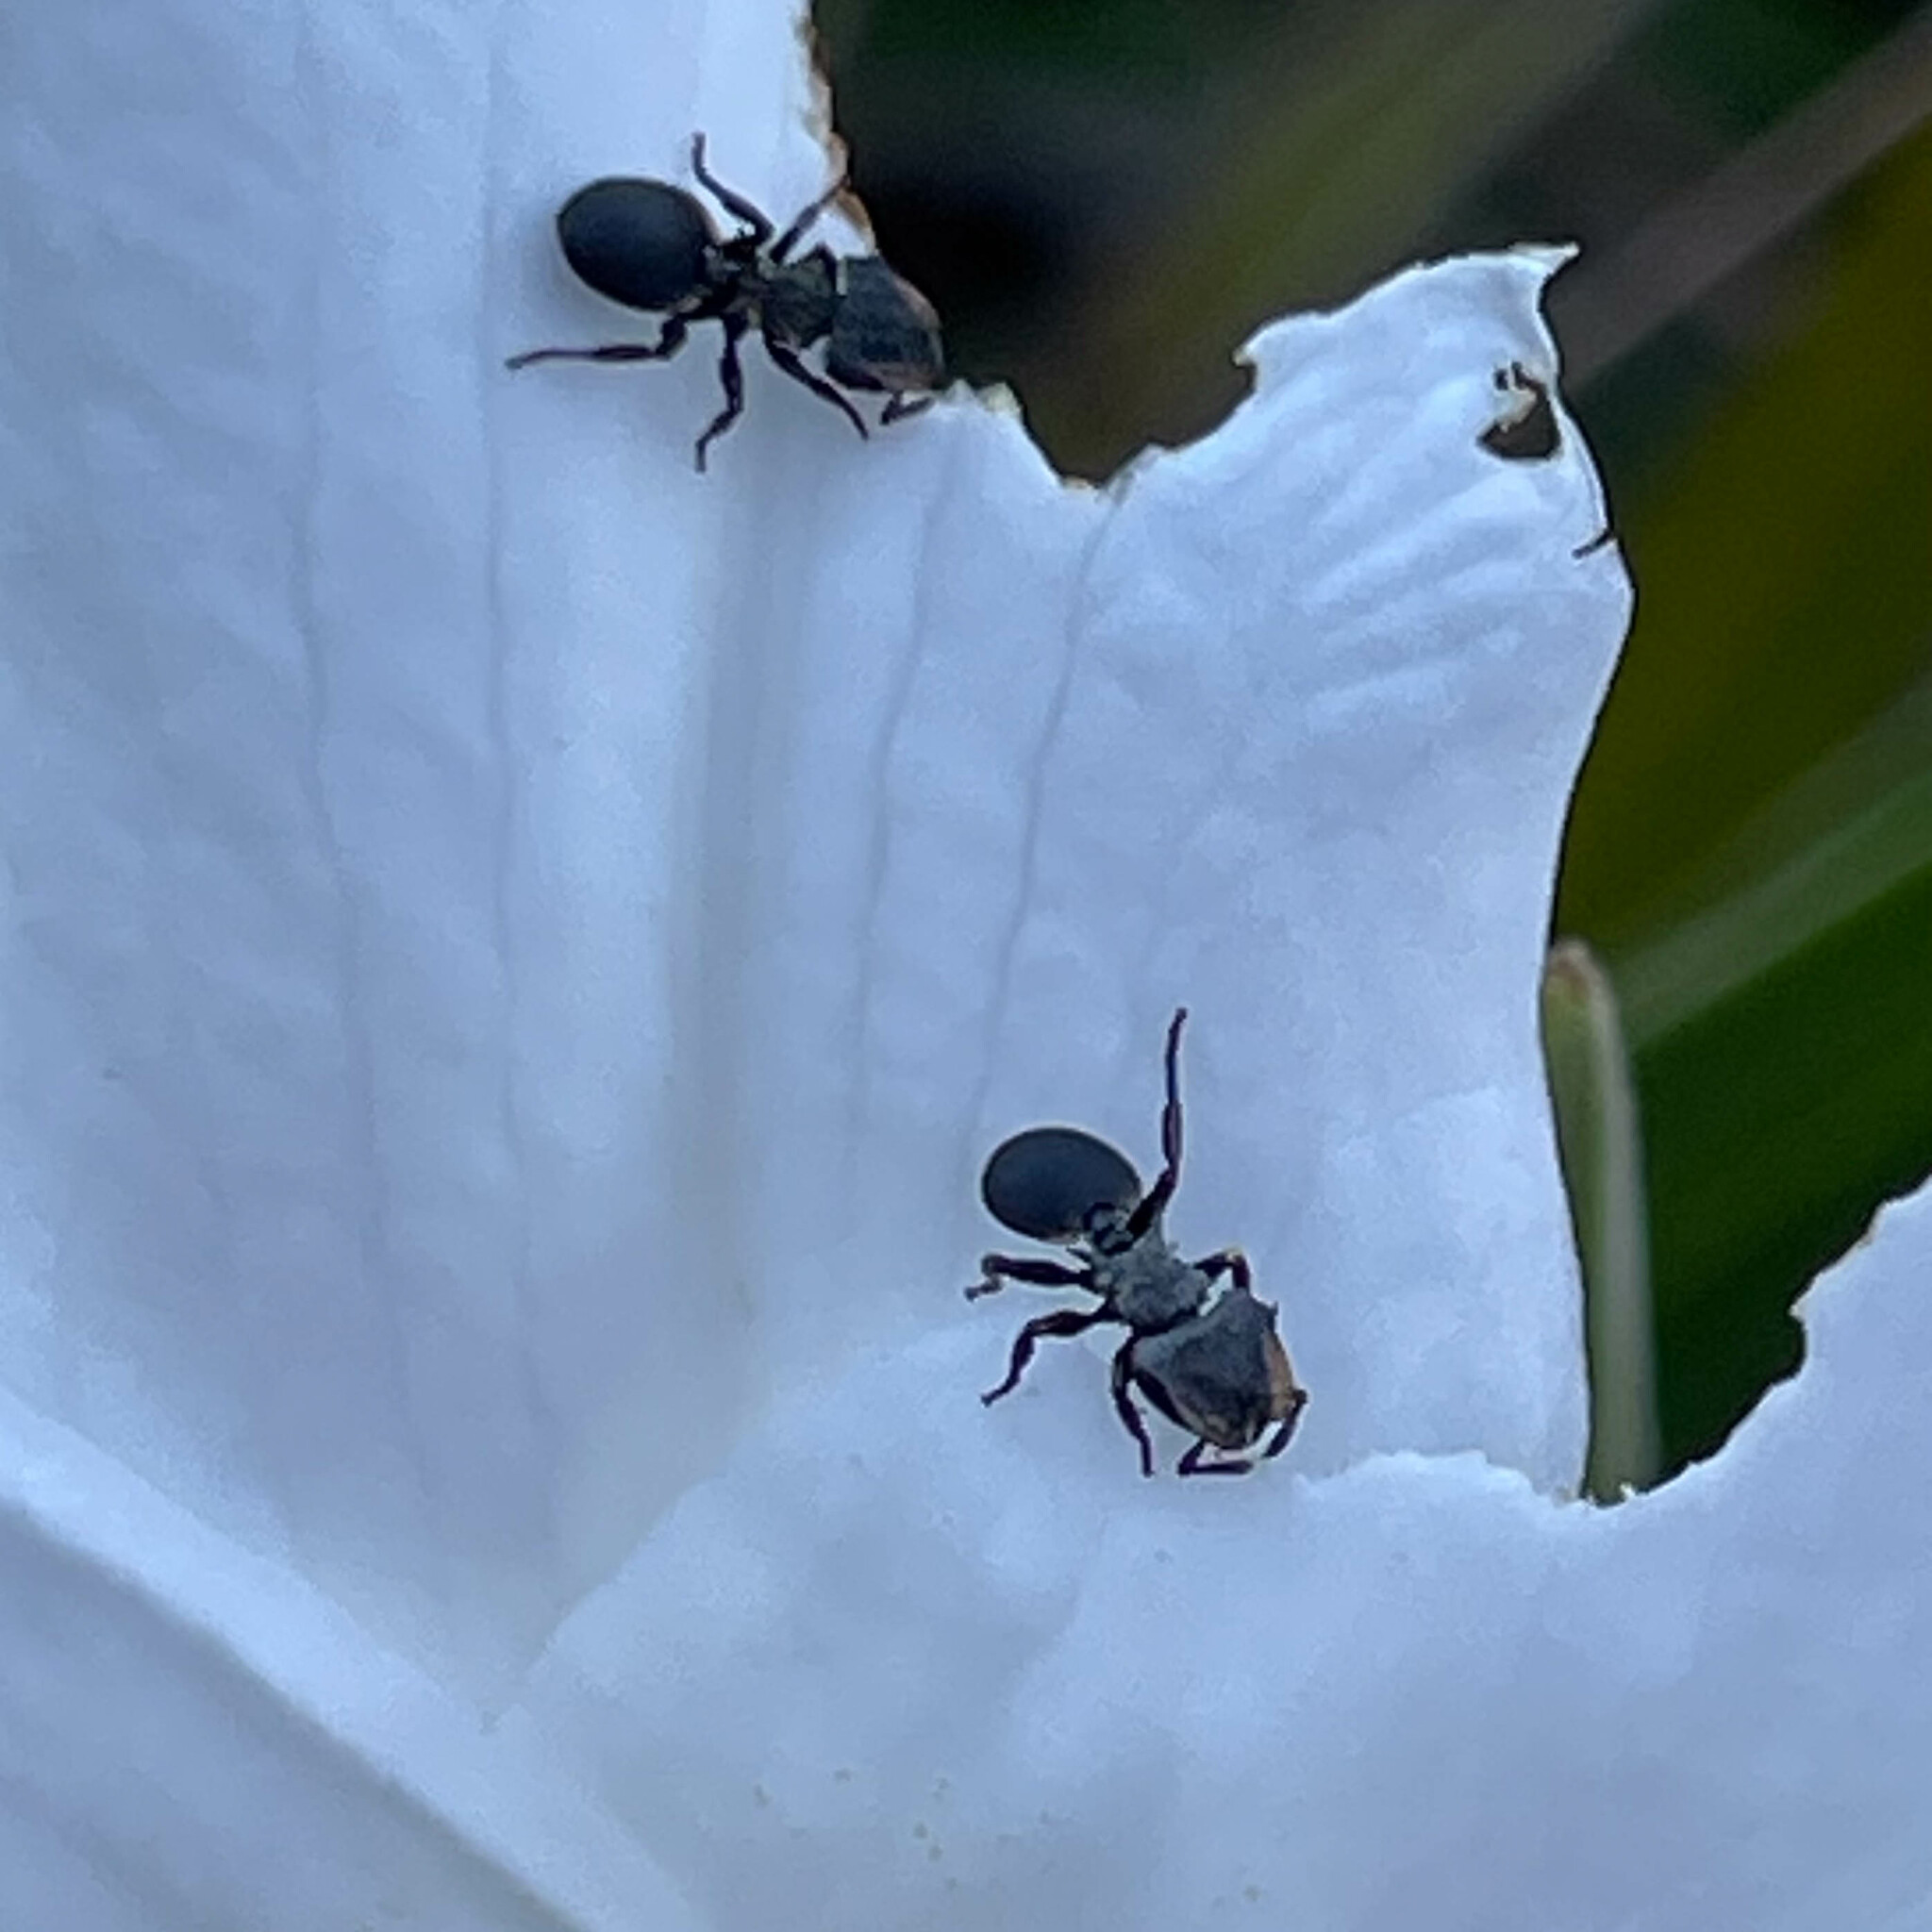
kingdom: Animalia
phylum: Arthropoda
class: Insecta
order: Hymenoptera
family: Formicidae
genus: Cephalotes
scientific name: Cephalotes pusillus
